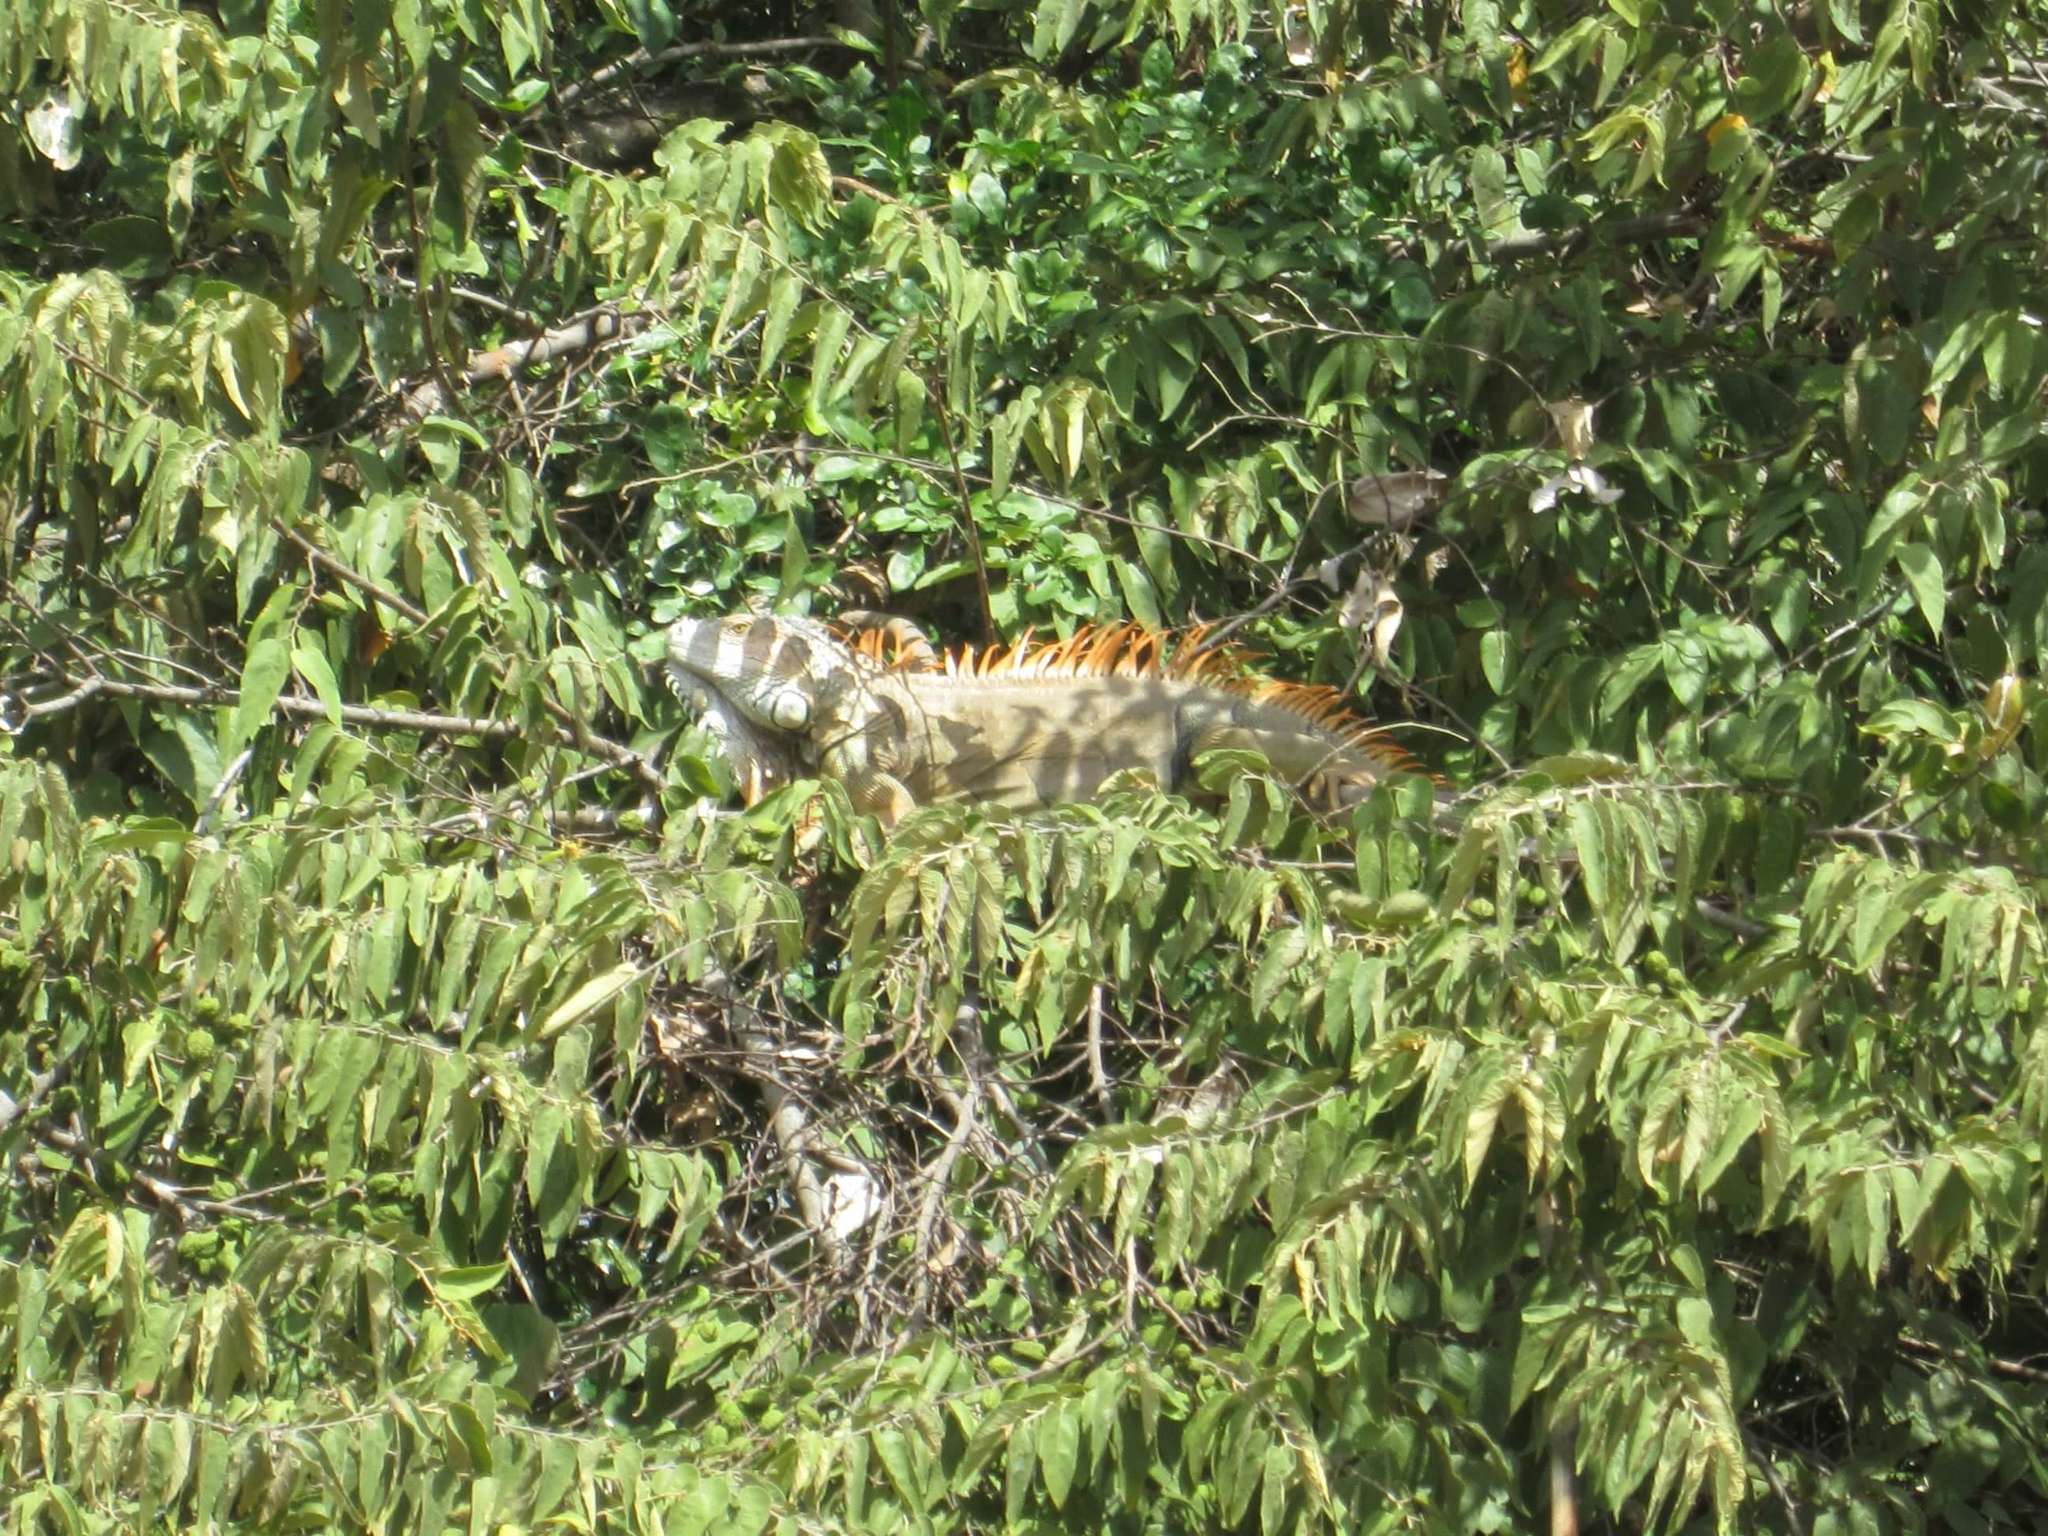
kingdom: Animalia
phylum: Chordata
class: Squamata
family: Iguanidae
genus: Iguana
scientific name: Iguana iguana
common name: Green iguana
